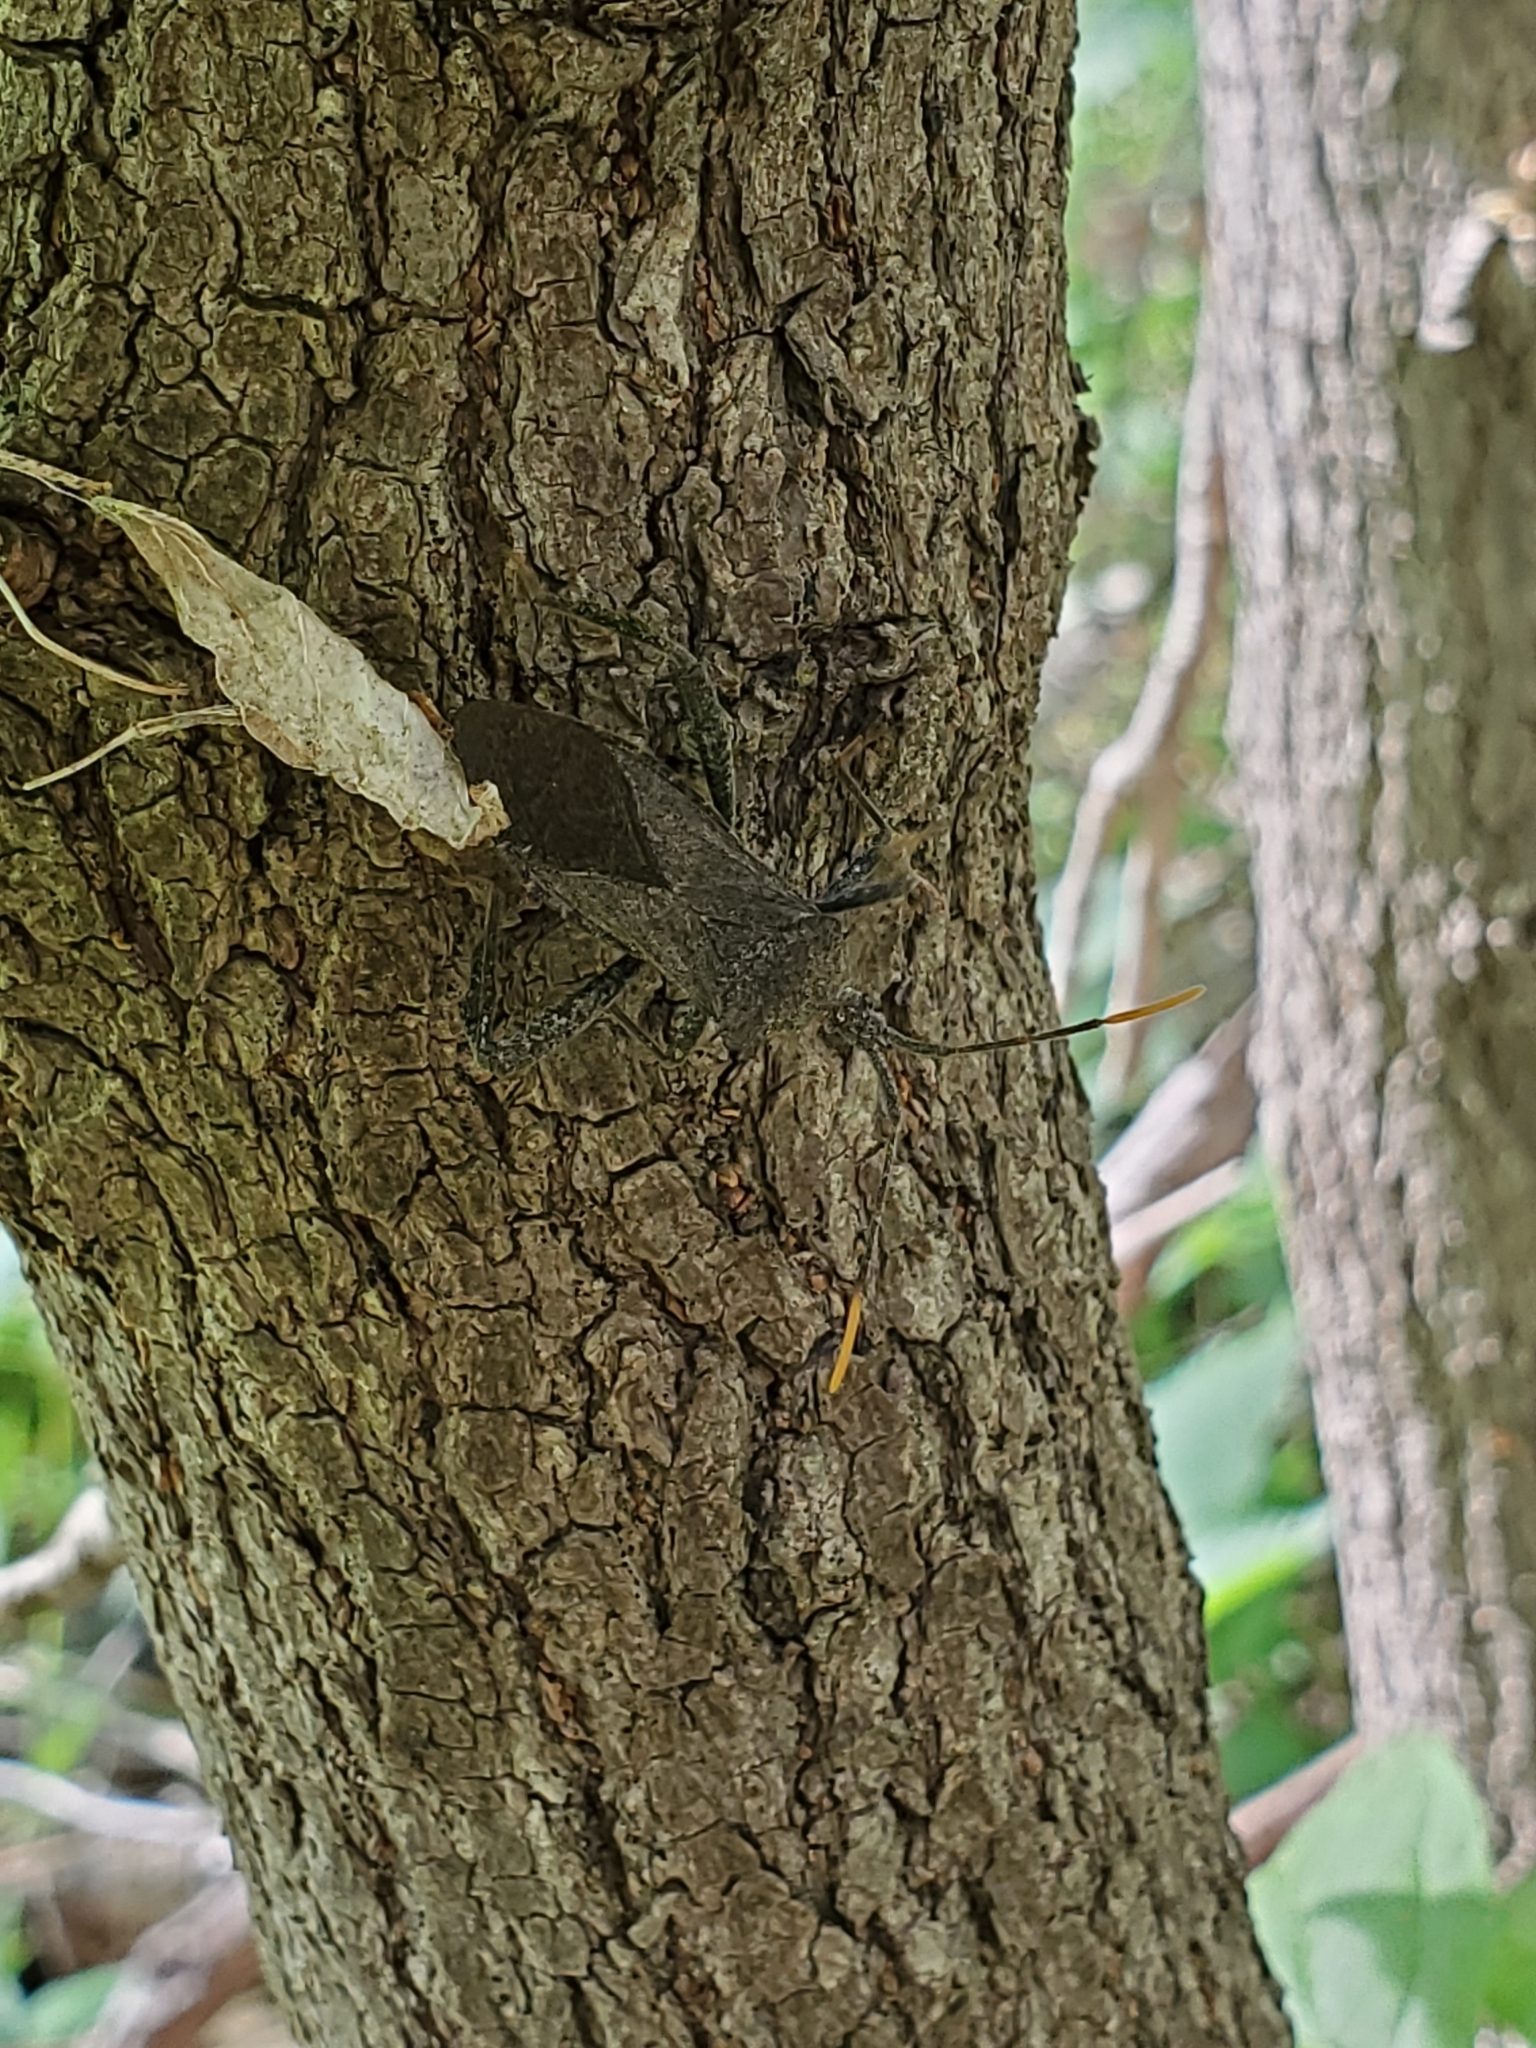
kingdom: Animalia
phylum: Arthropoda
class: Insecta
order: Hemiptera
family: Coreidae
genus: Acanthocephala
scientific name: Acanthocephala terminalis
